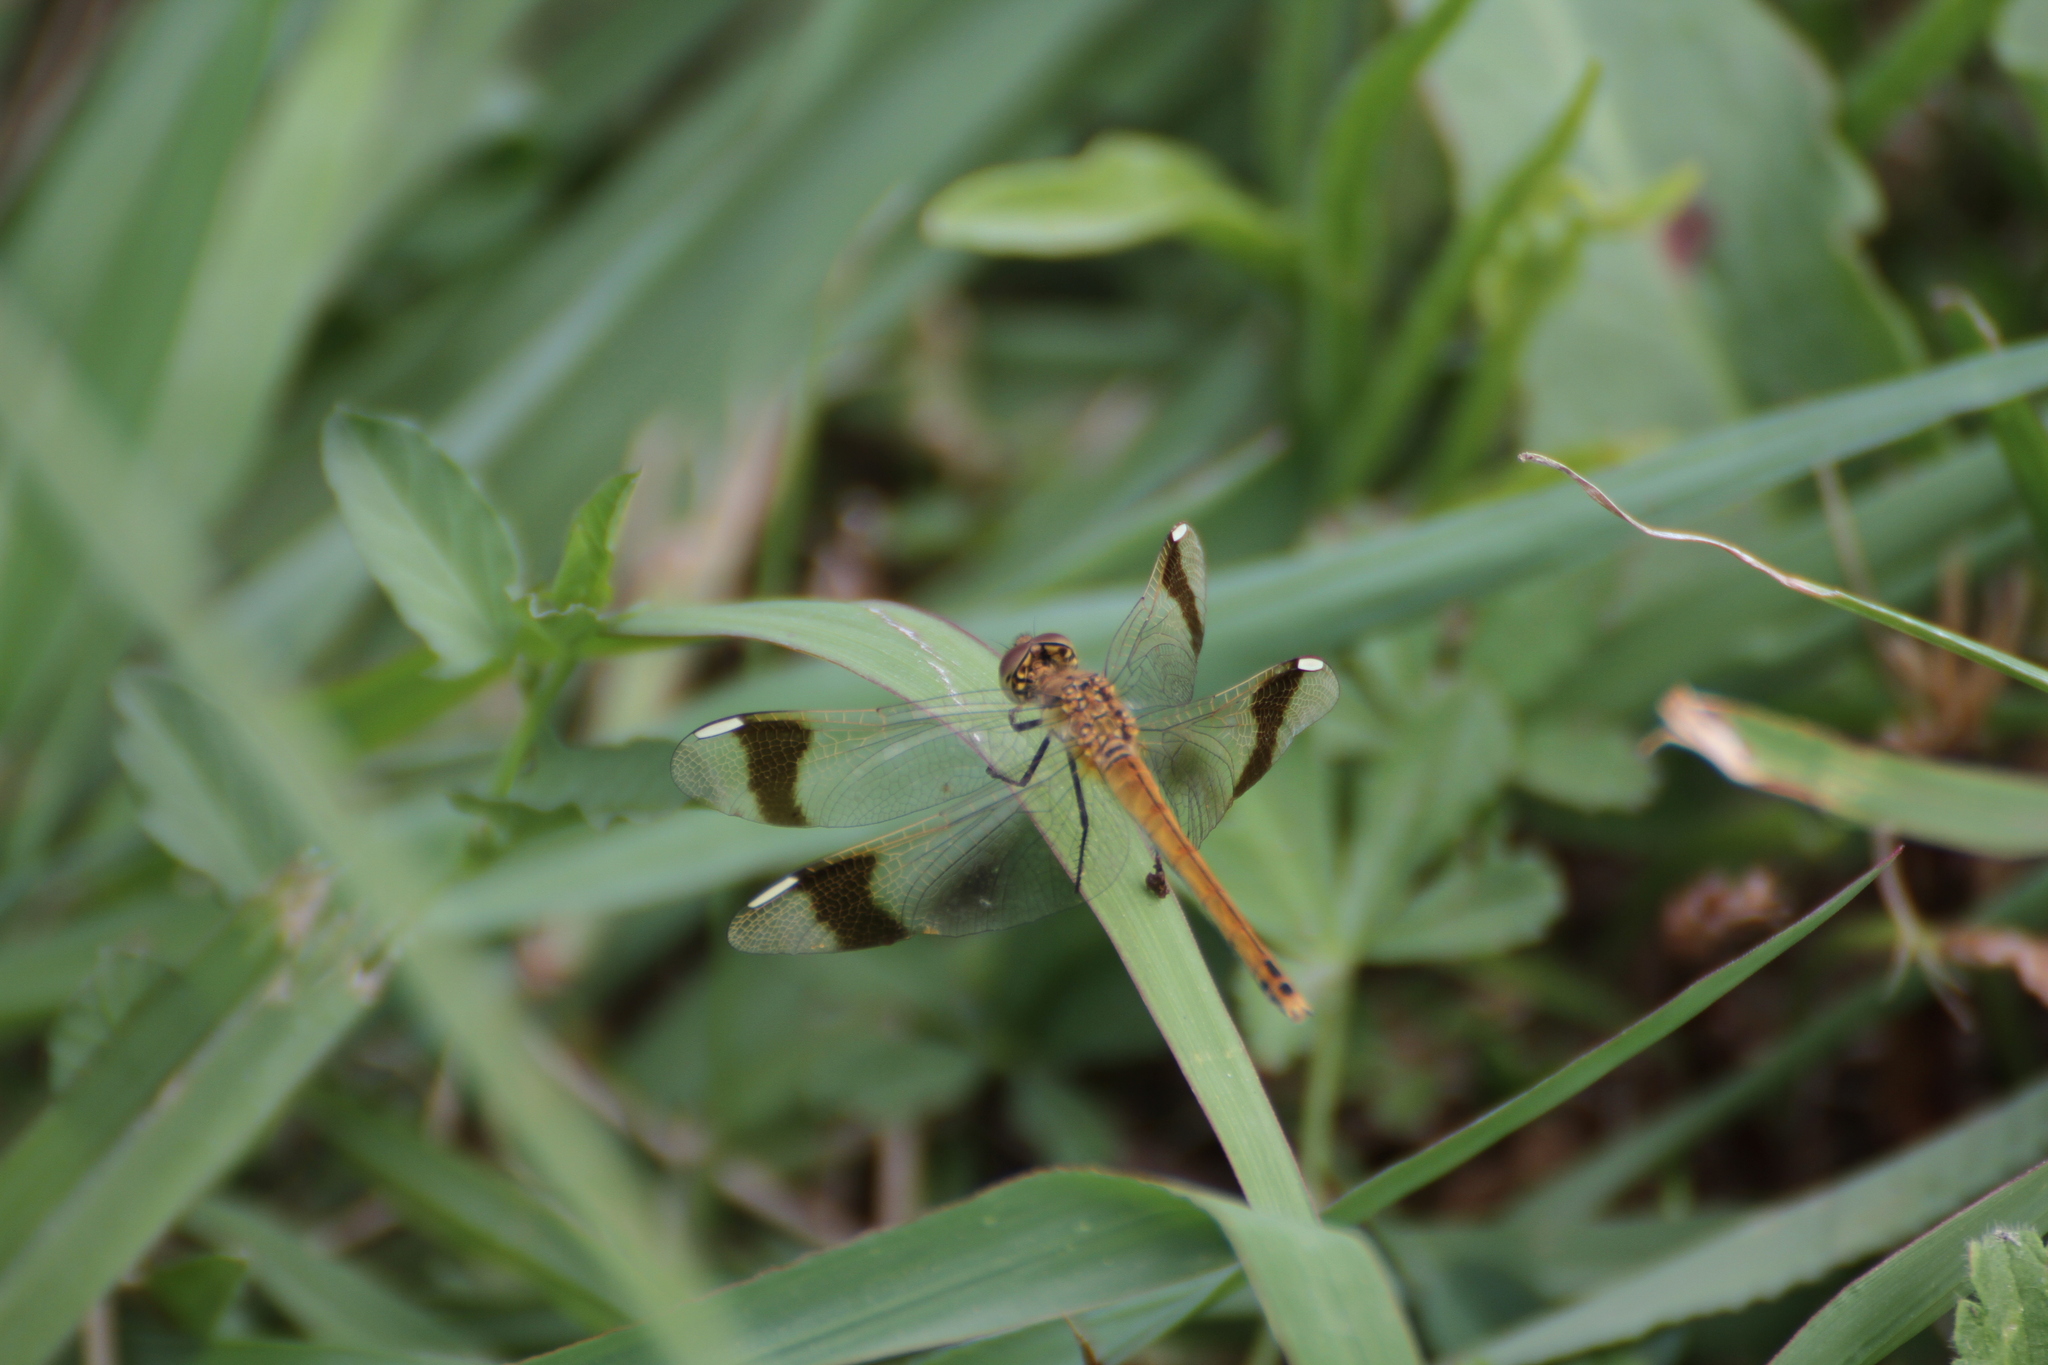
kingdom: Animalia
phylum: Arthropoda
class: Insecta
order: Odonata
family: Libellulidae
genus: Sympetrum
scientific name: Sympetrum pedemontanum
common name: Banded darter
